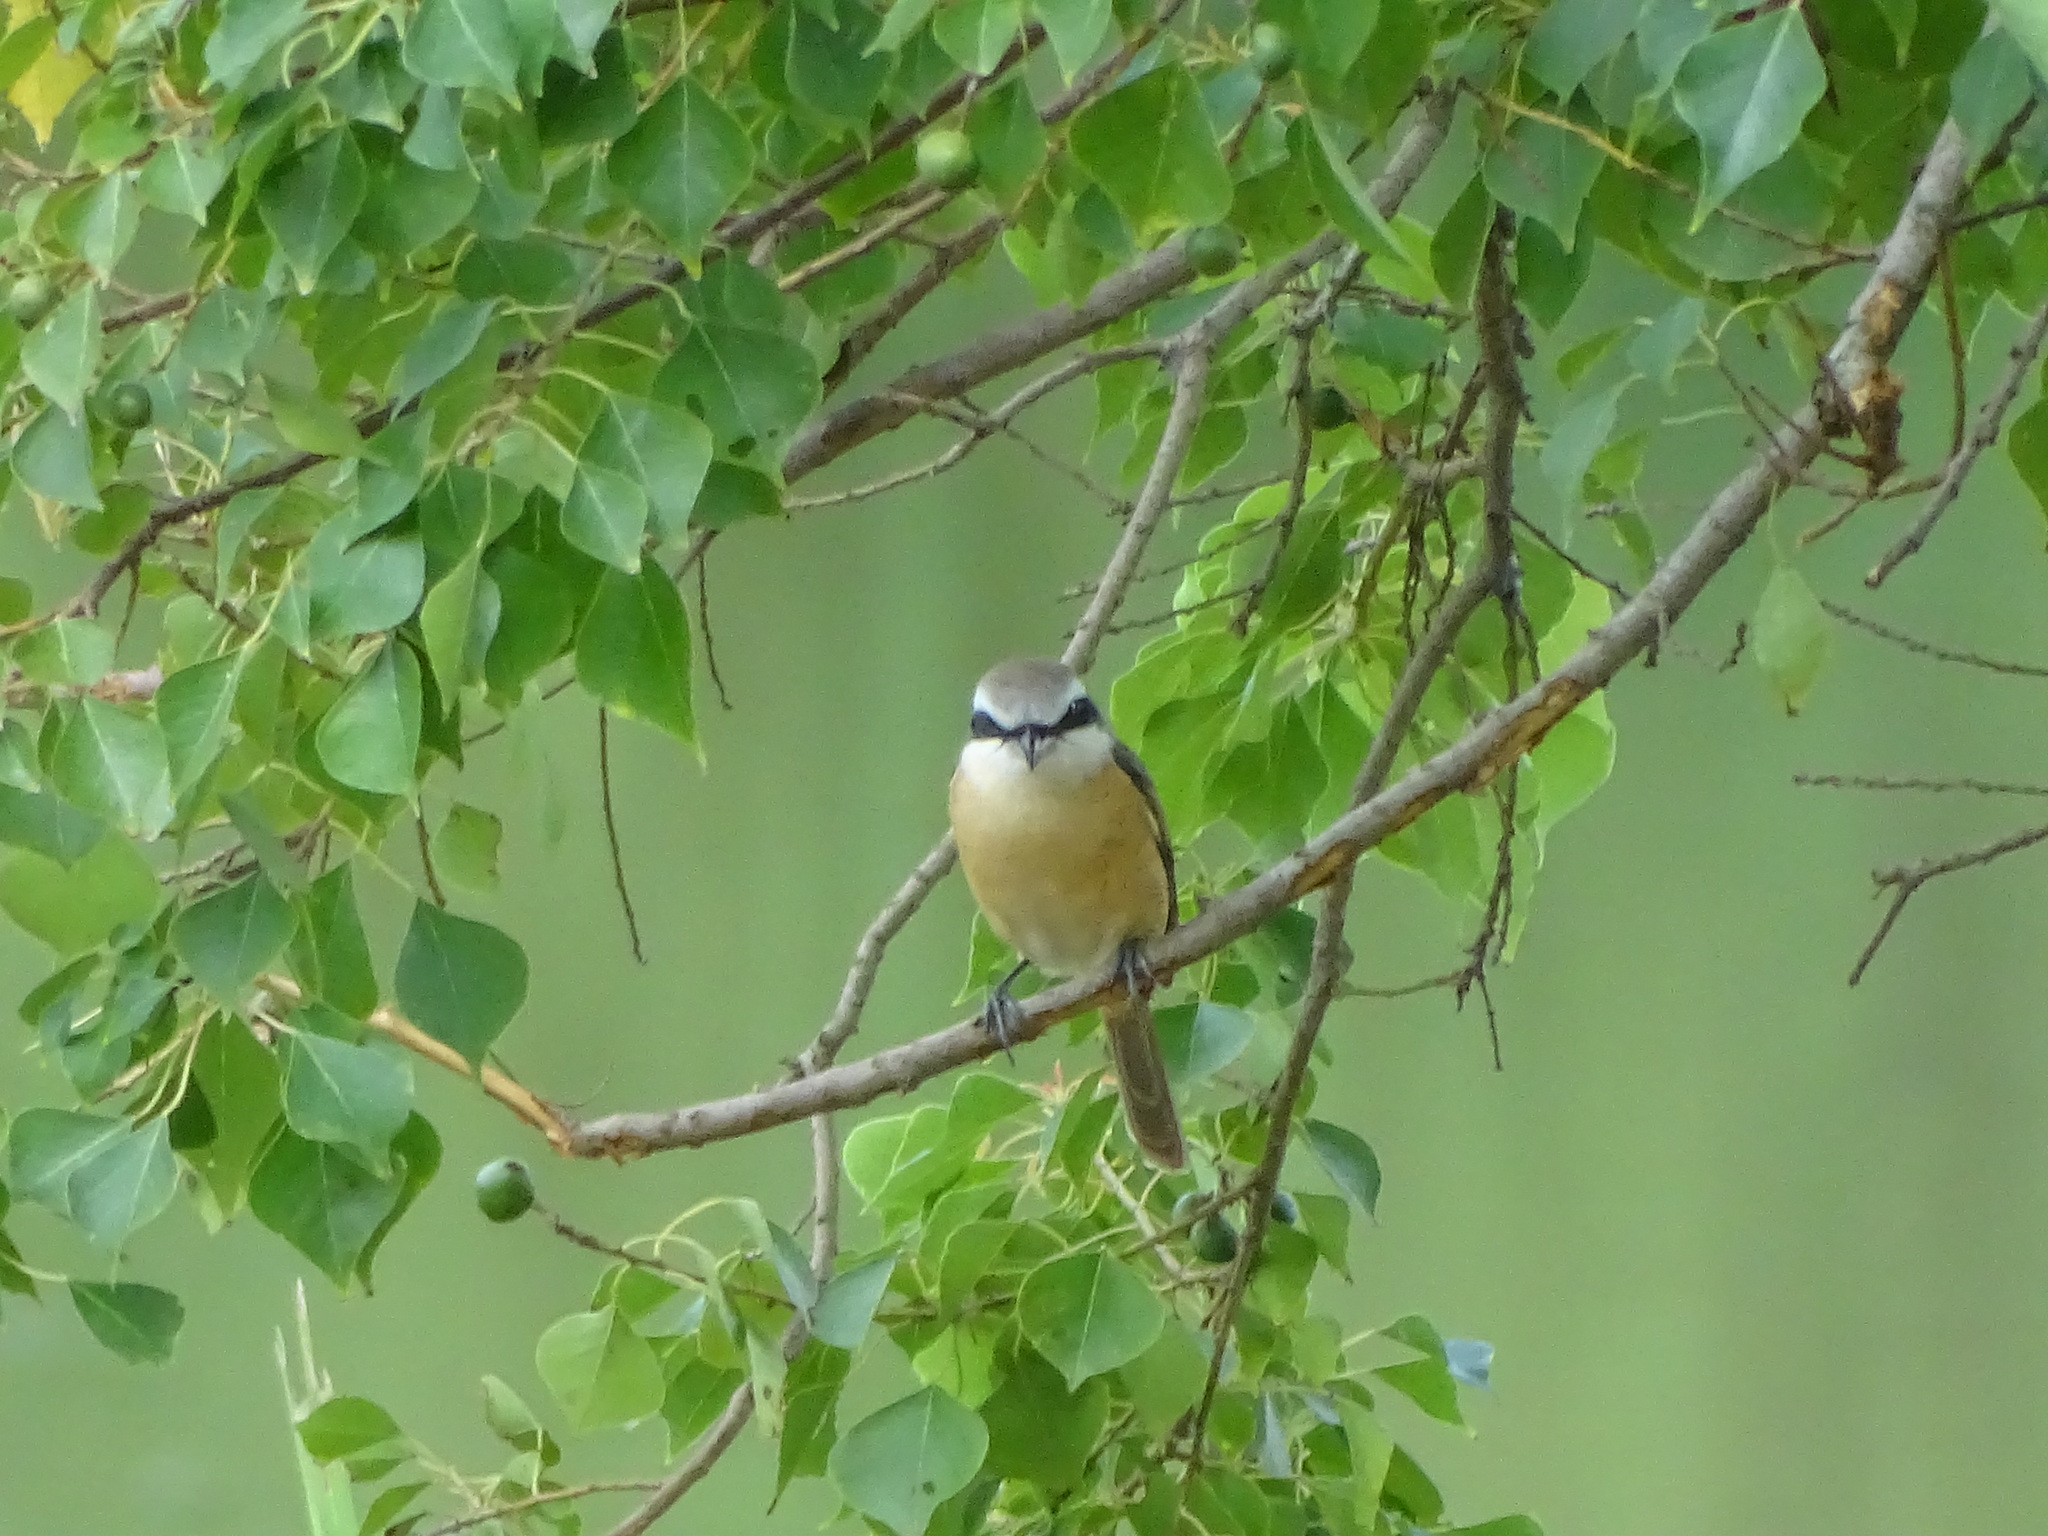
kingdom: Animalia
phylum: Chordata
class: Aves
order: Passeriformes
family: Laniidae
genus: Lanius
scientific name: Lanius cristatus
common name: Brown shrike
